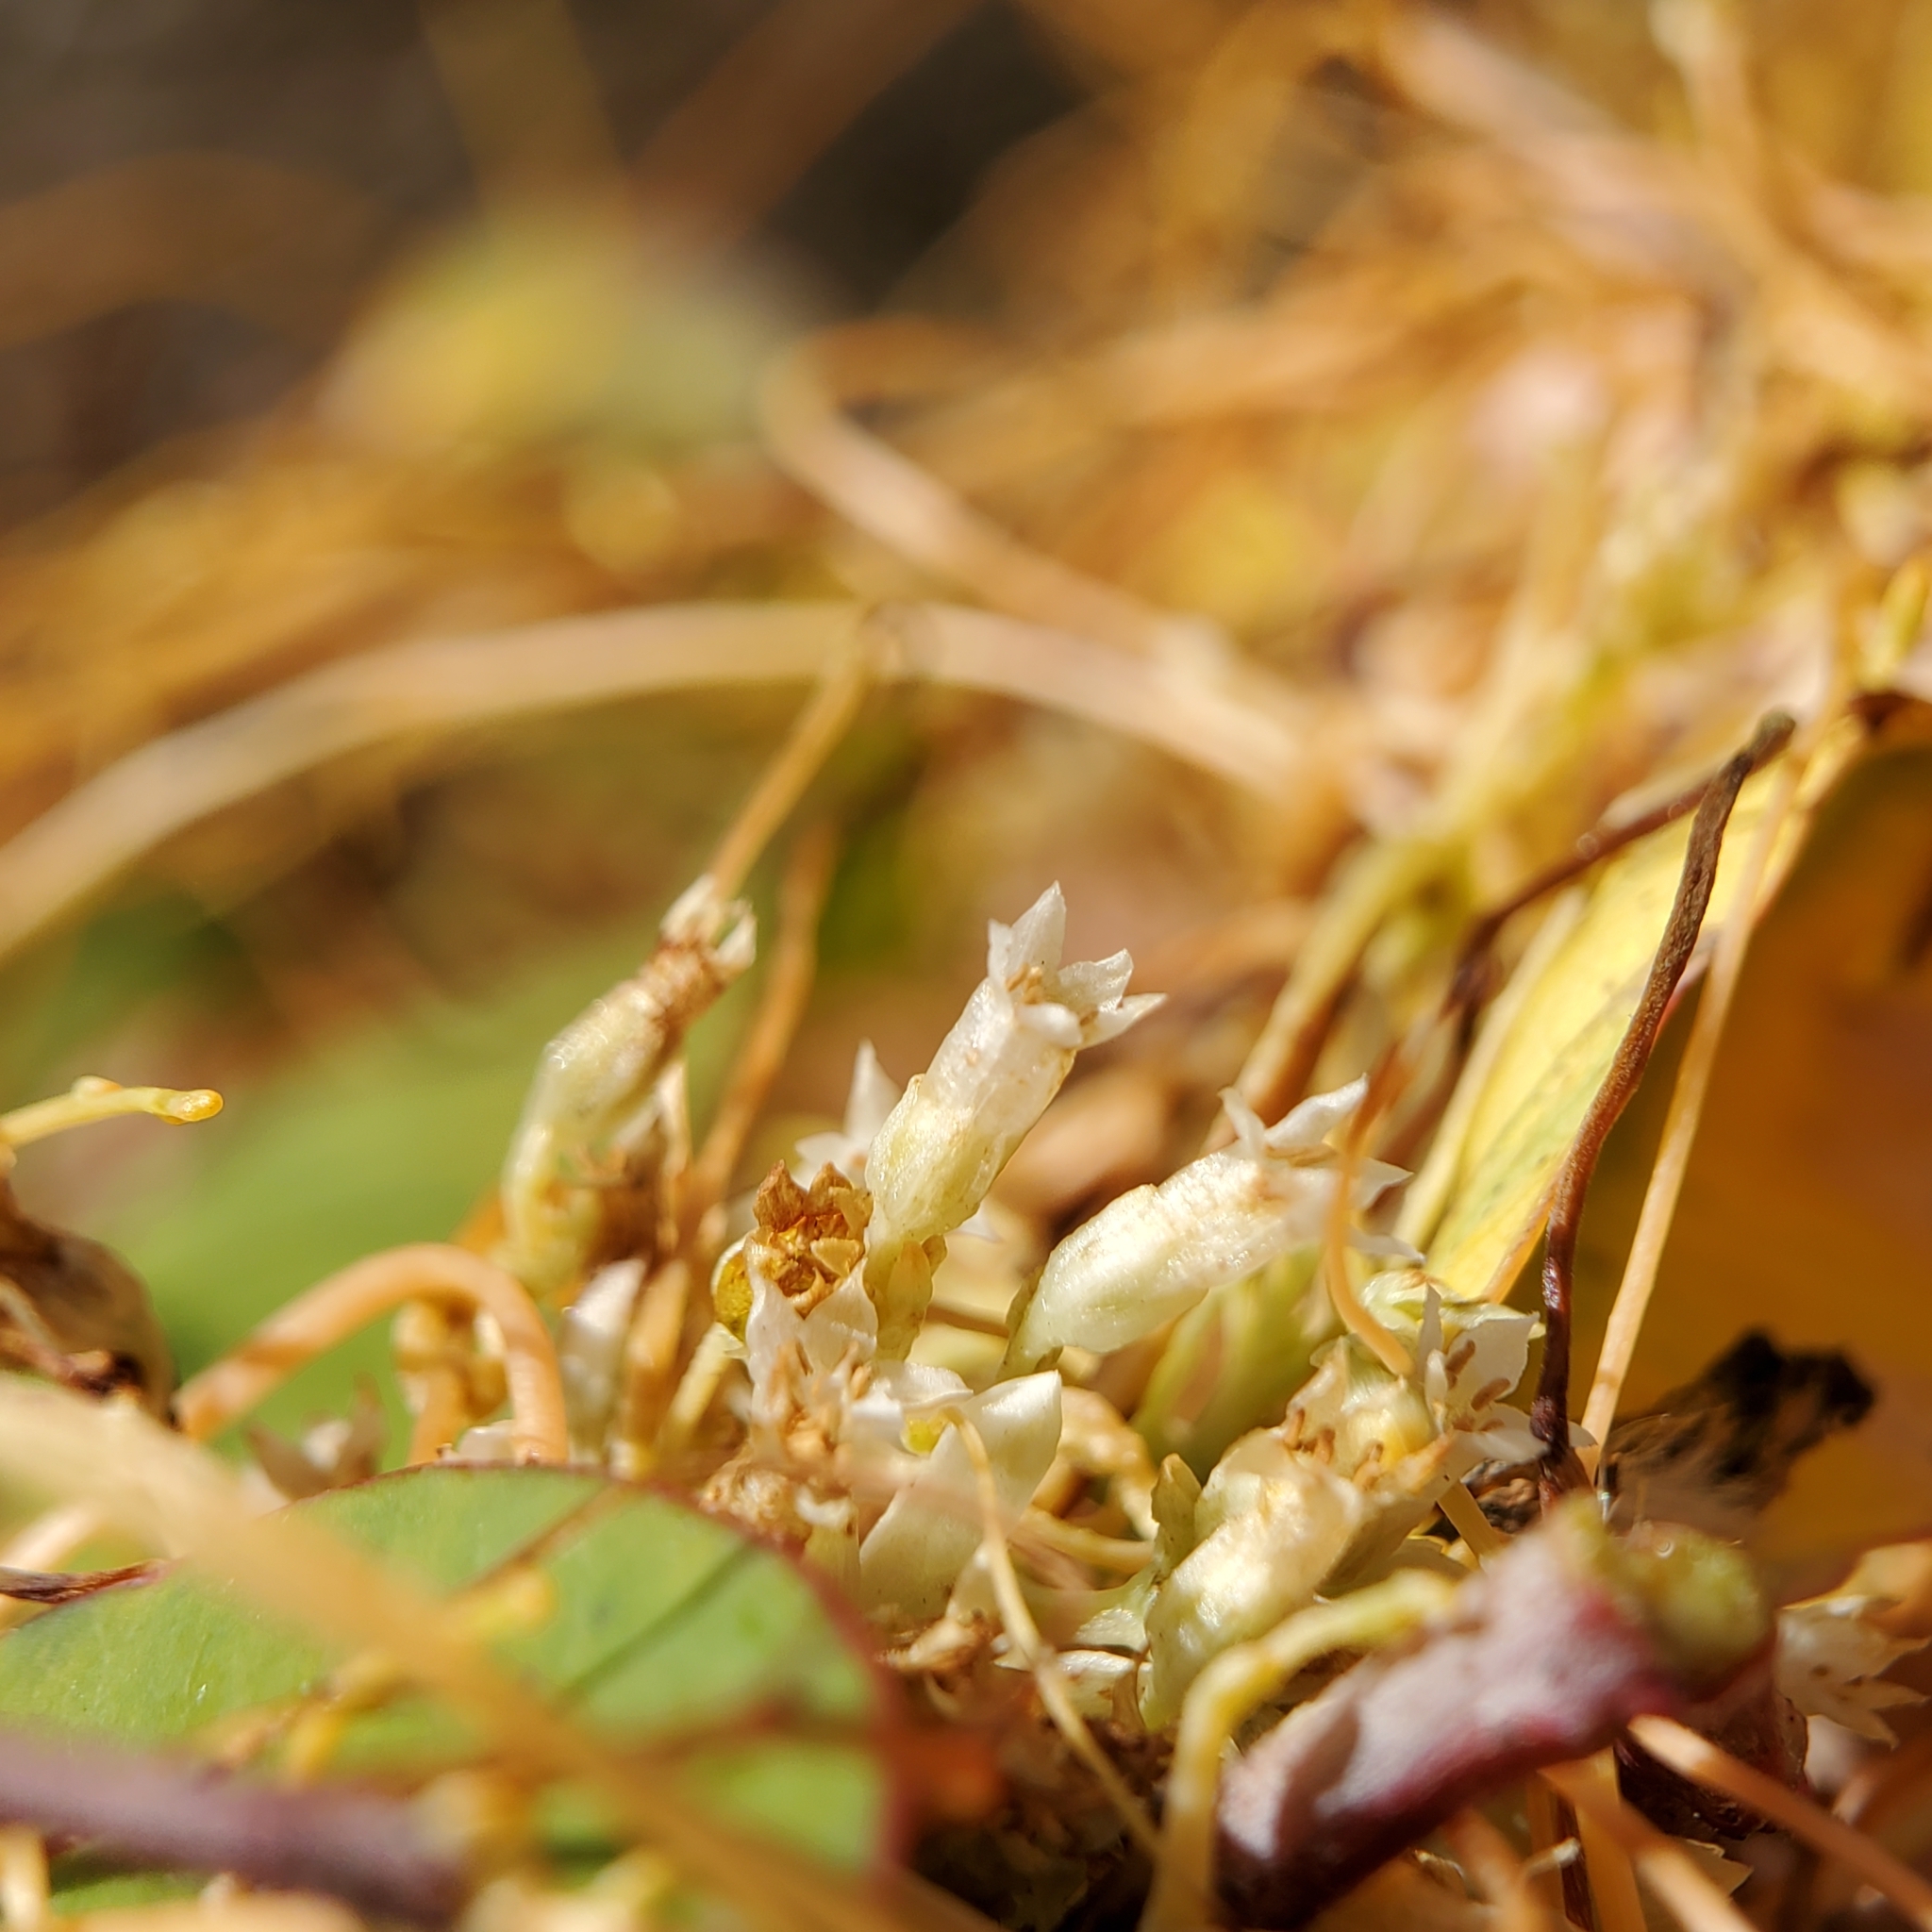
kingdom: Plantae
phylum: Tracheophyta
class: Magnoliopsida
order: Solanales
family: Convolvulaceae
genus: Cuscuta
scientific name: Cuscuta subinclusa
